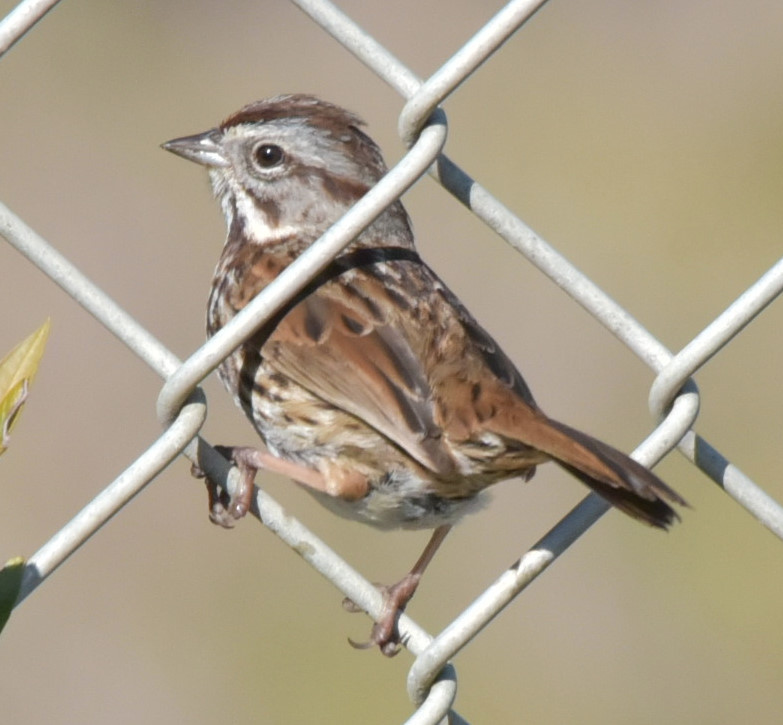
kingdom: Animalia
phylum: Chordata
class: Aves
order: Passeriformes
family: Passerellidae
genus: Melospiza
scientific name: Melospiza melodia
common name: Song sparrow
